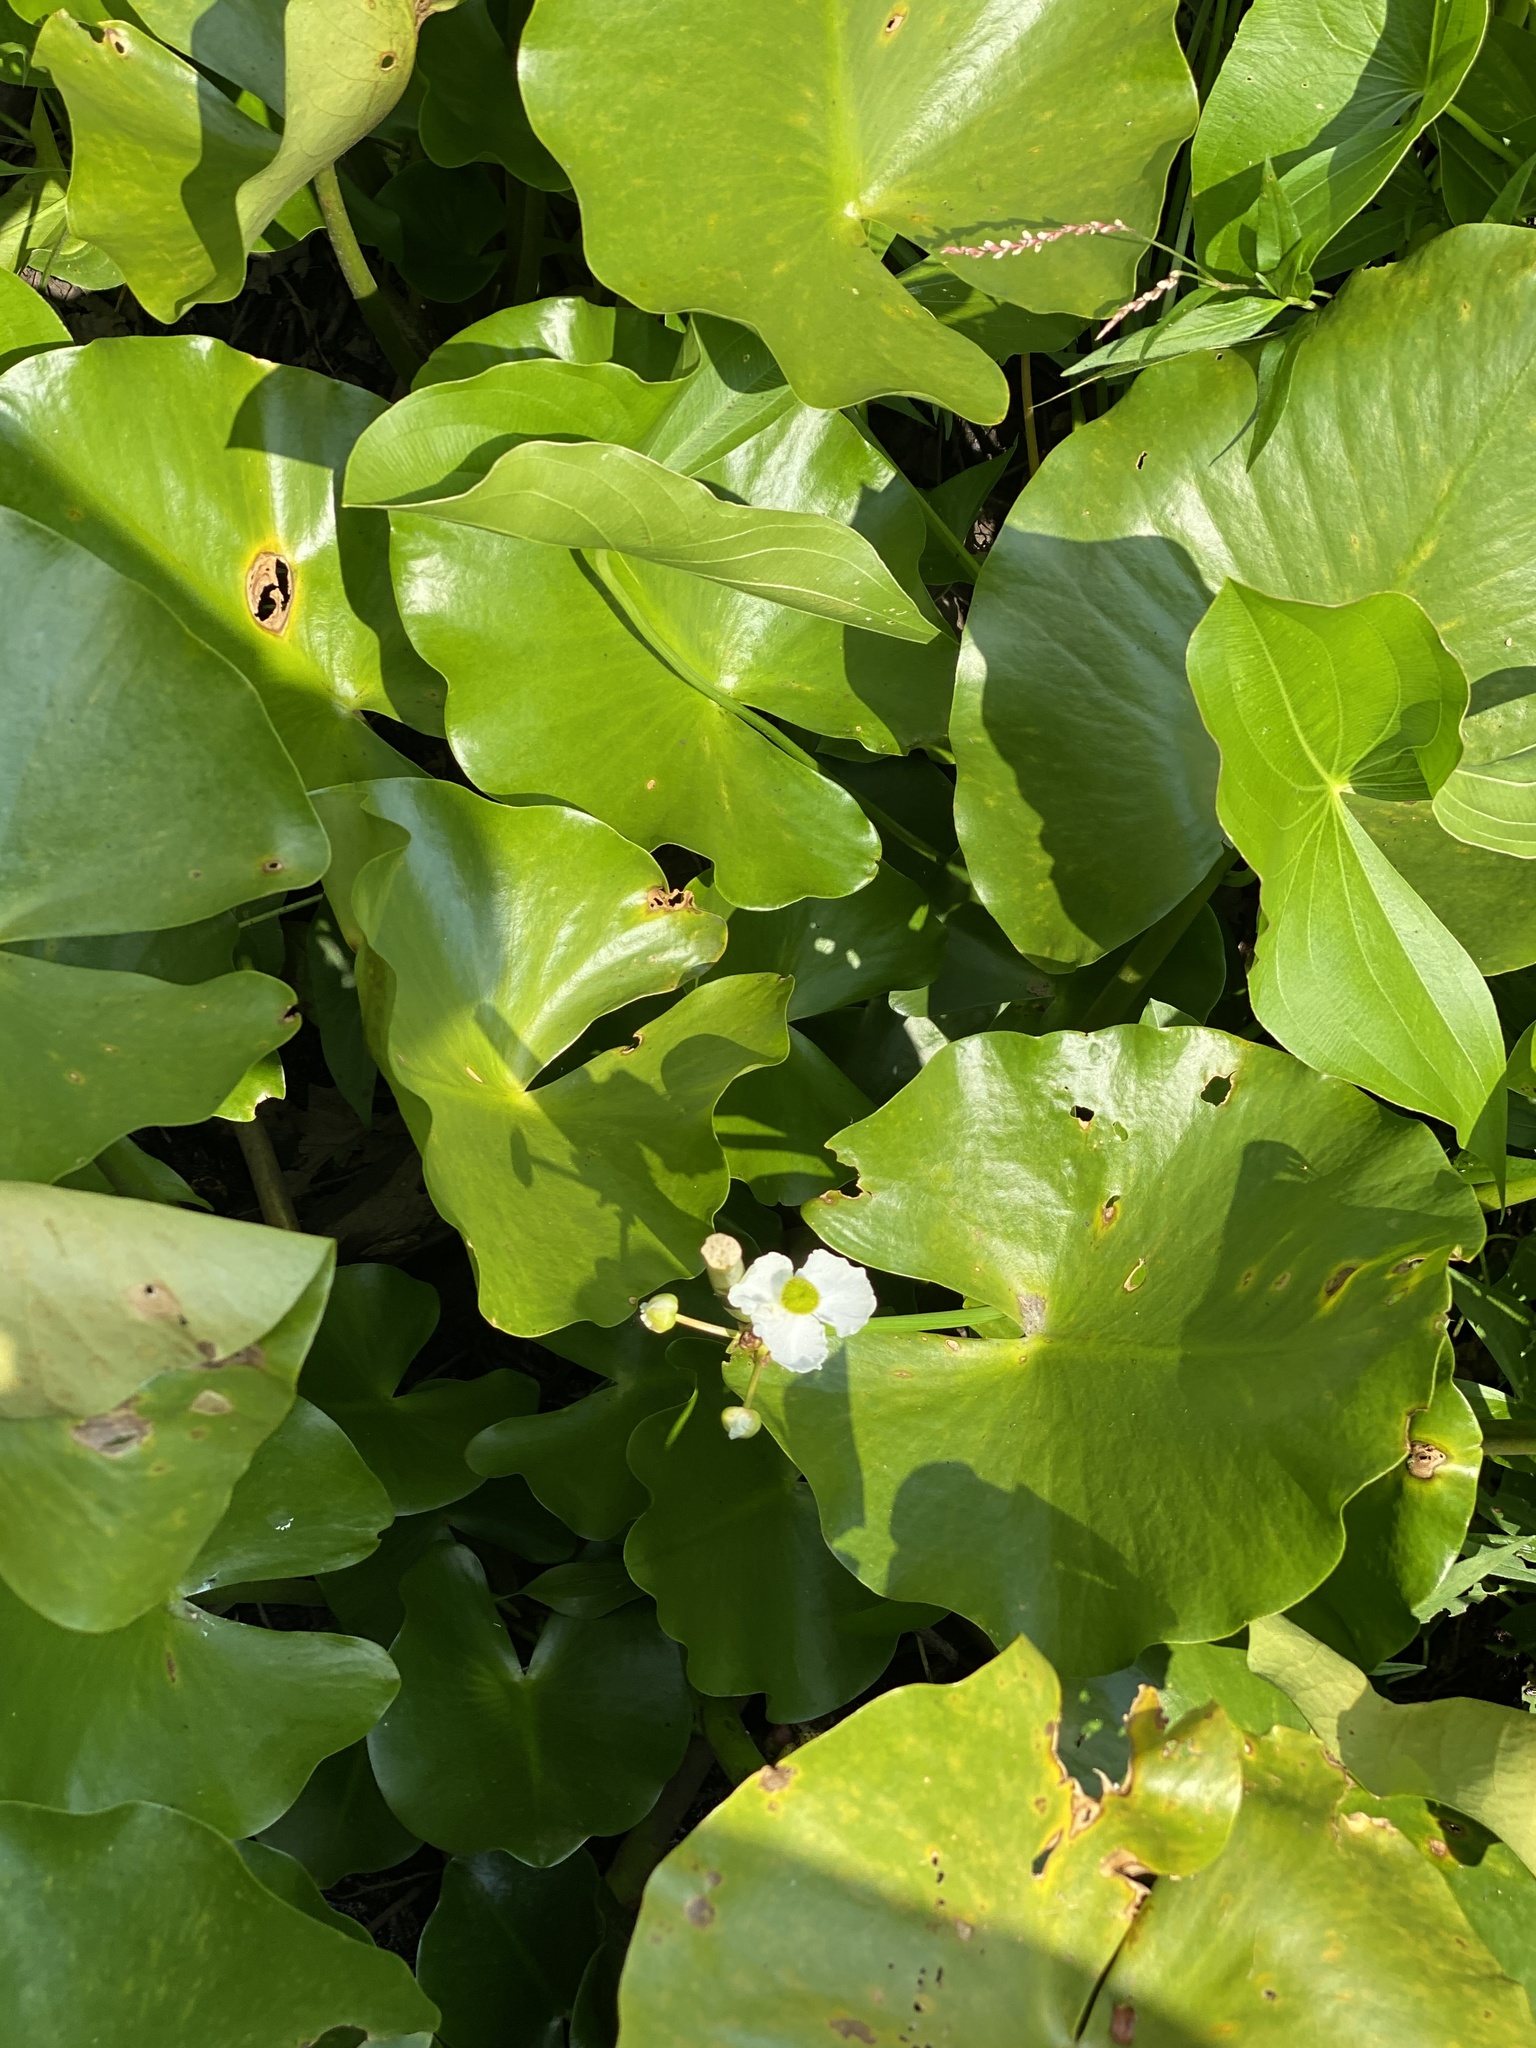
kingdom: Plantae
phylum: Tracheophyta
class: Liliopsida
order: Alismatales
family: Alismataceae
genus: Sagittaria
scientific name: Sagittaria latifolia
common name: Duck-potato
